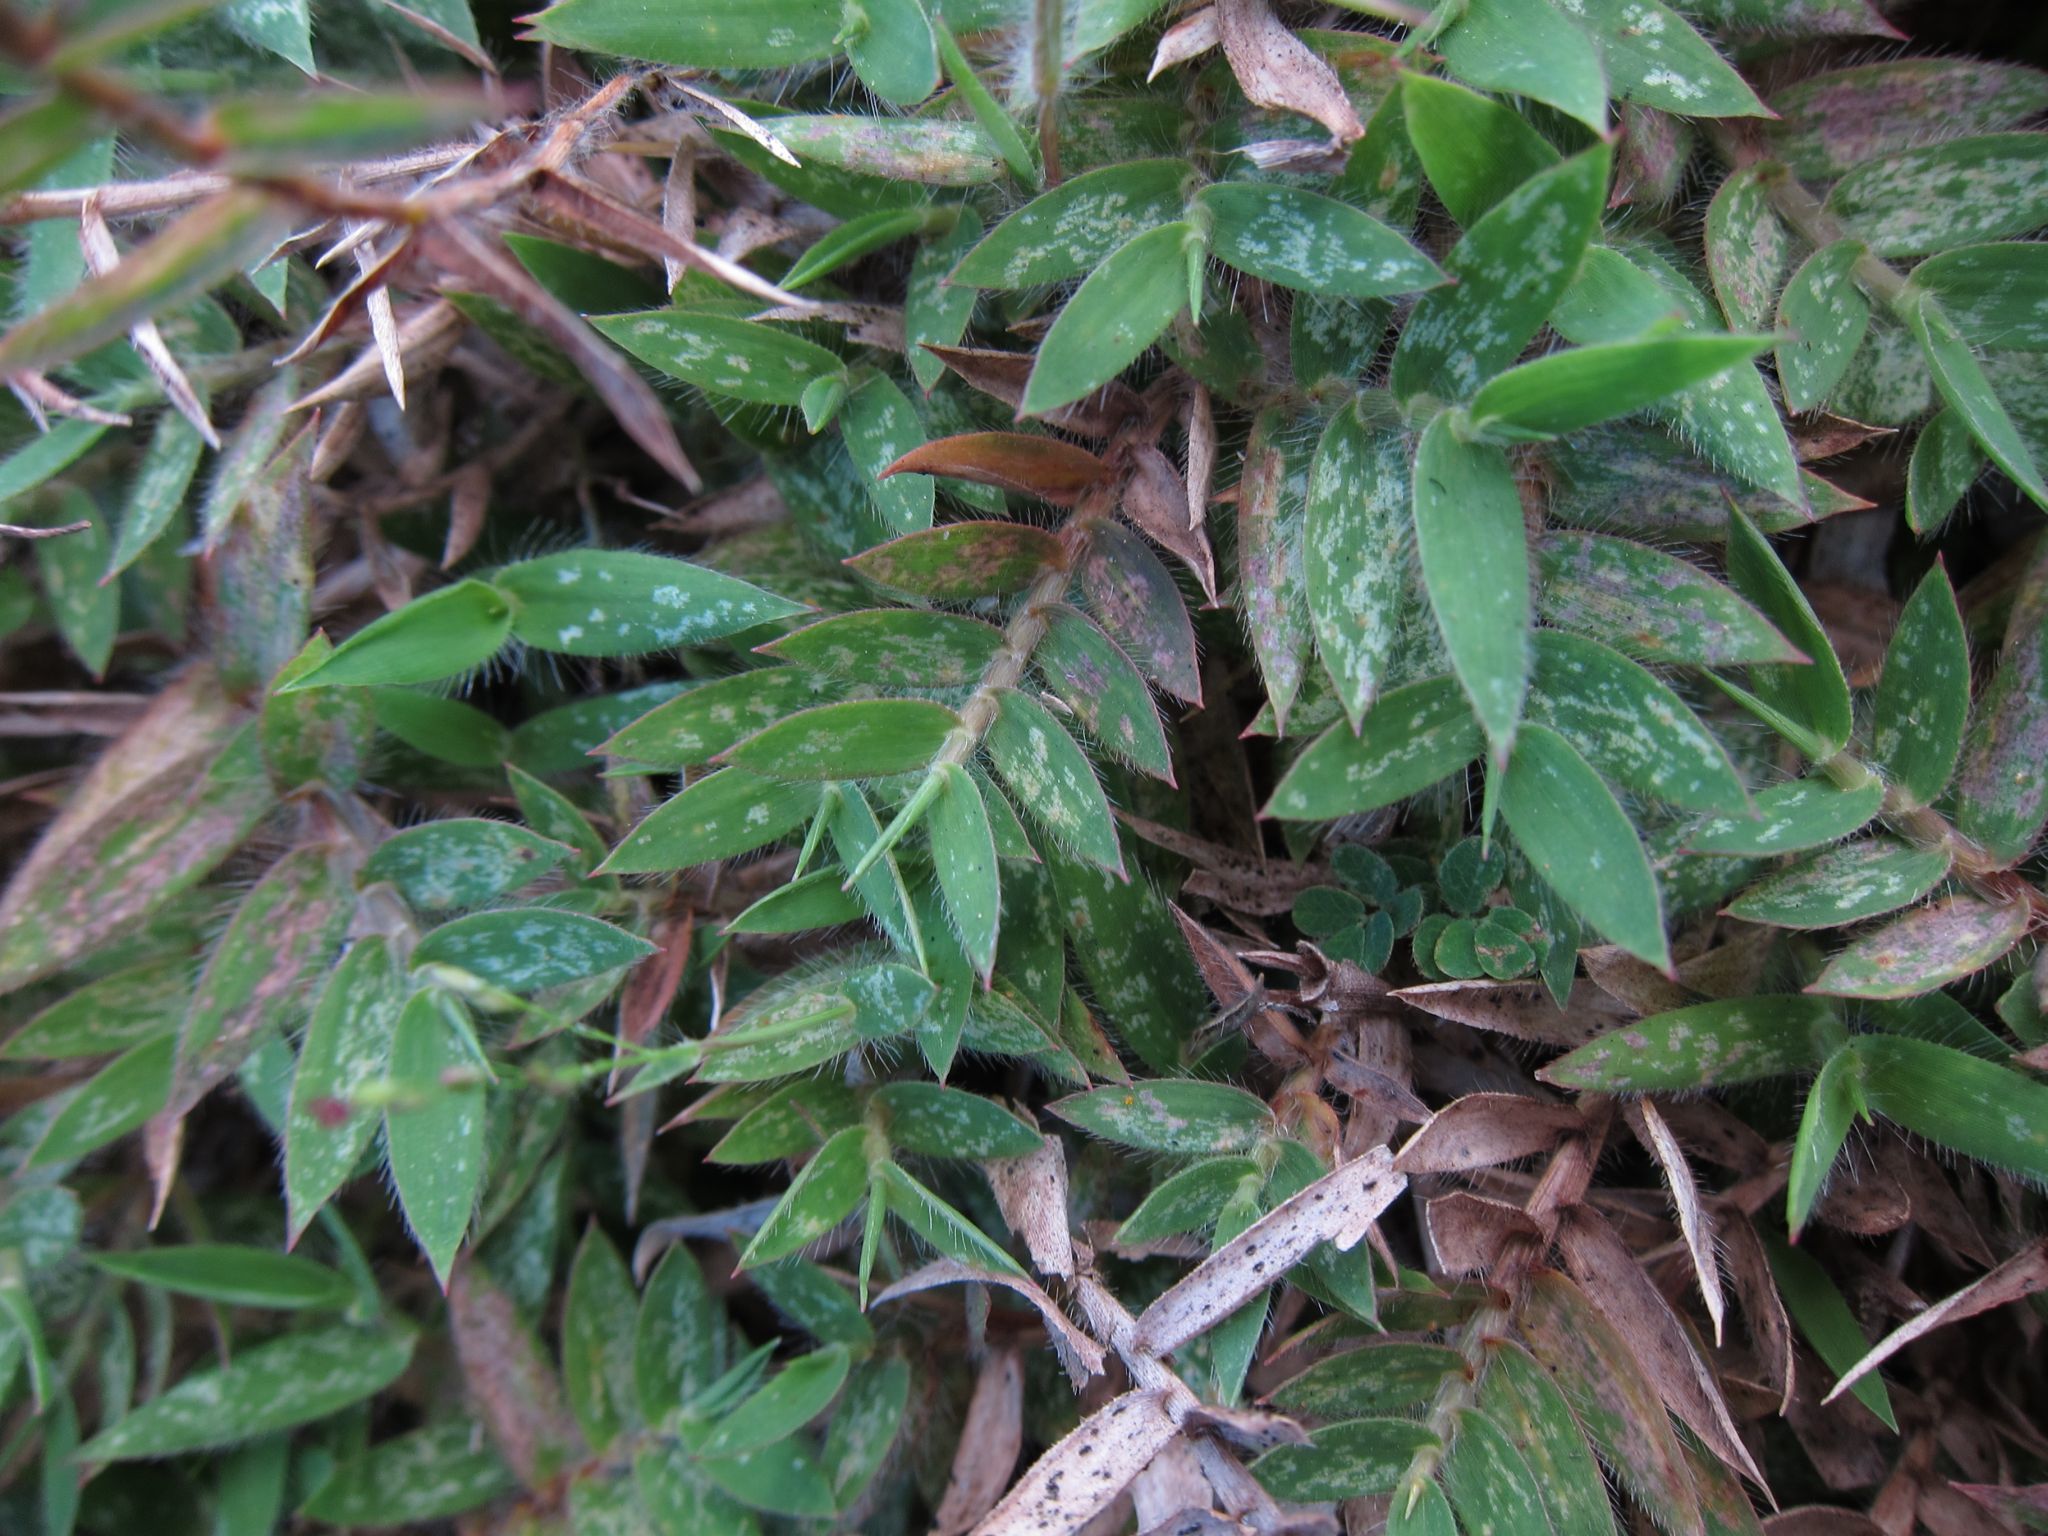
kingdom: Plantae
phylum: Tracheophyta
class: Liliopsida
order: Poales
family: Poaceae
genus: Urochloa
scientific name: Urochloa Brachiaria umbellata
